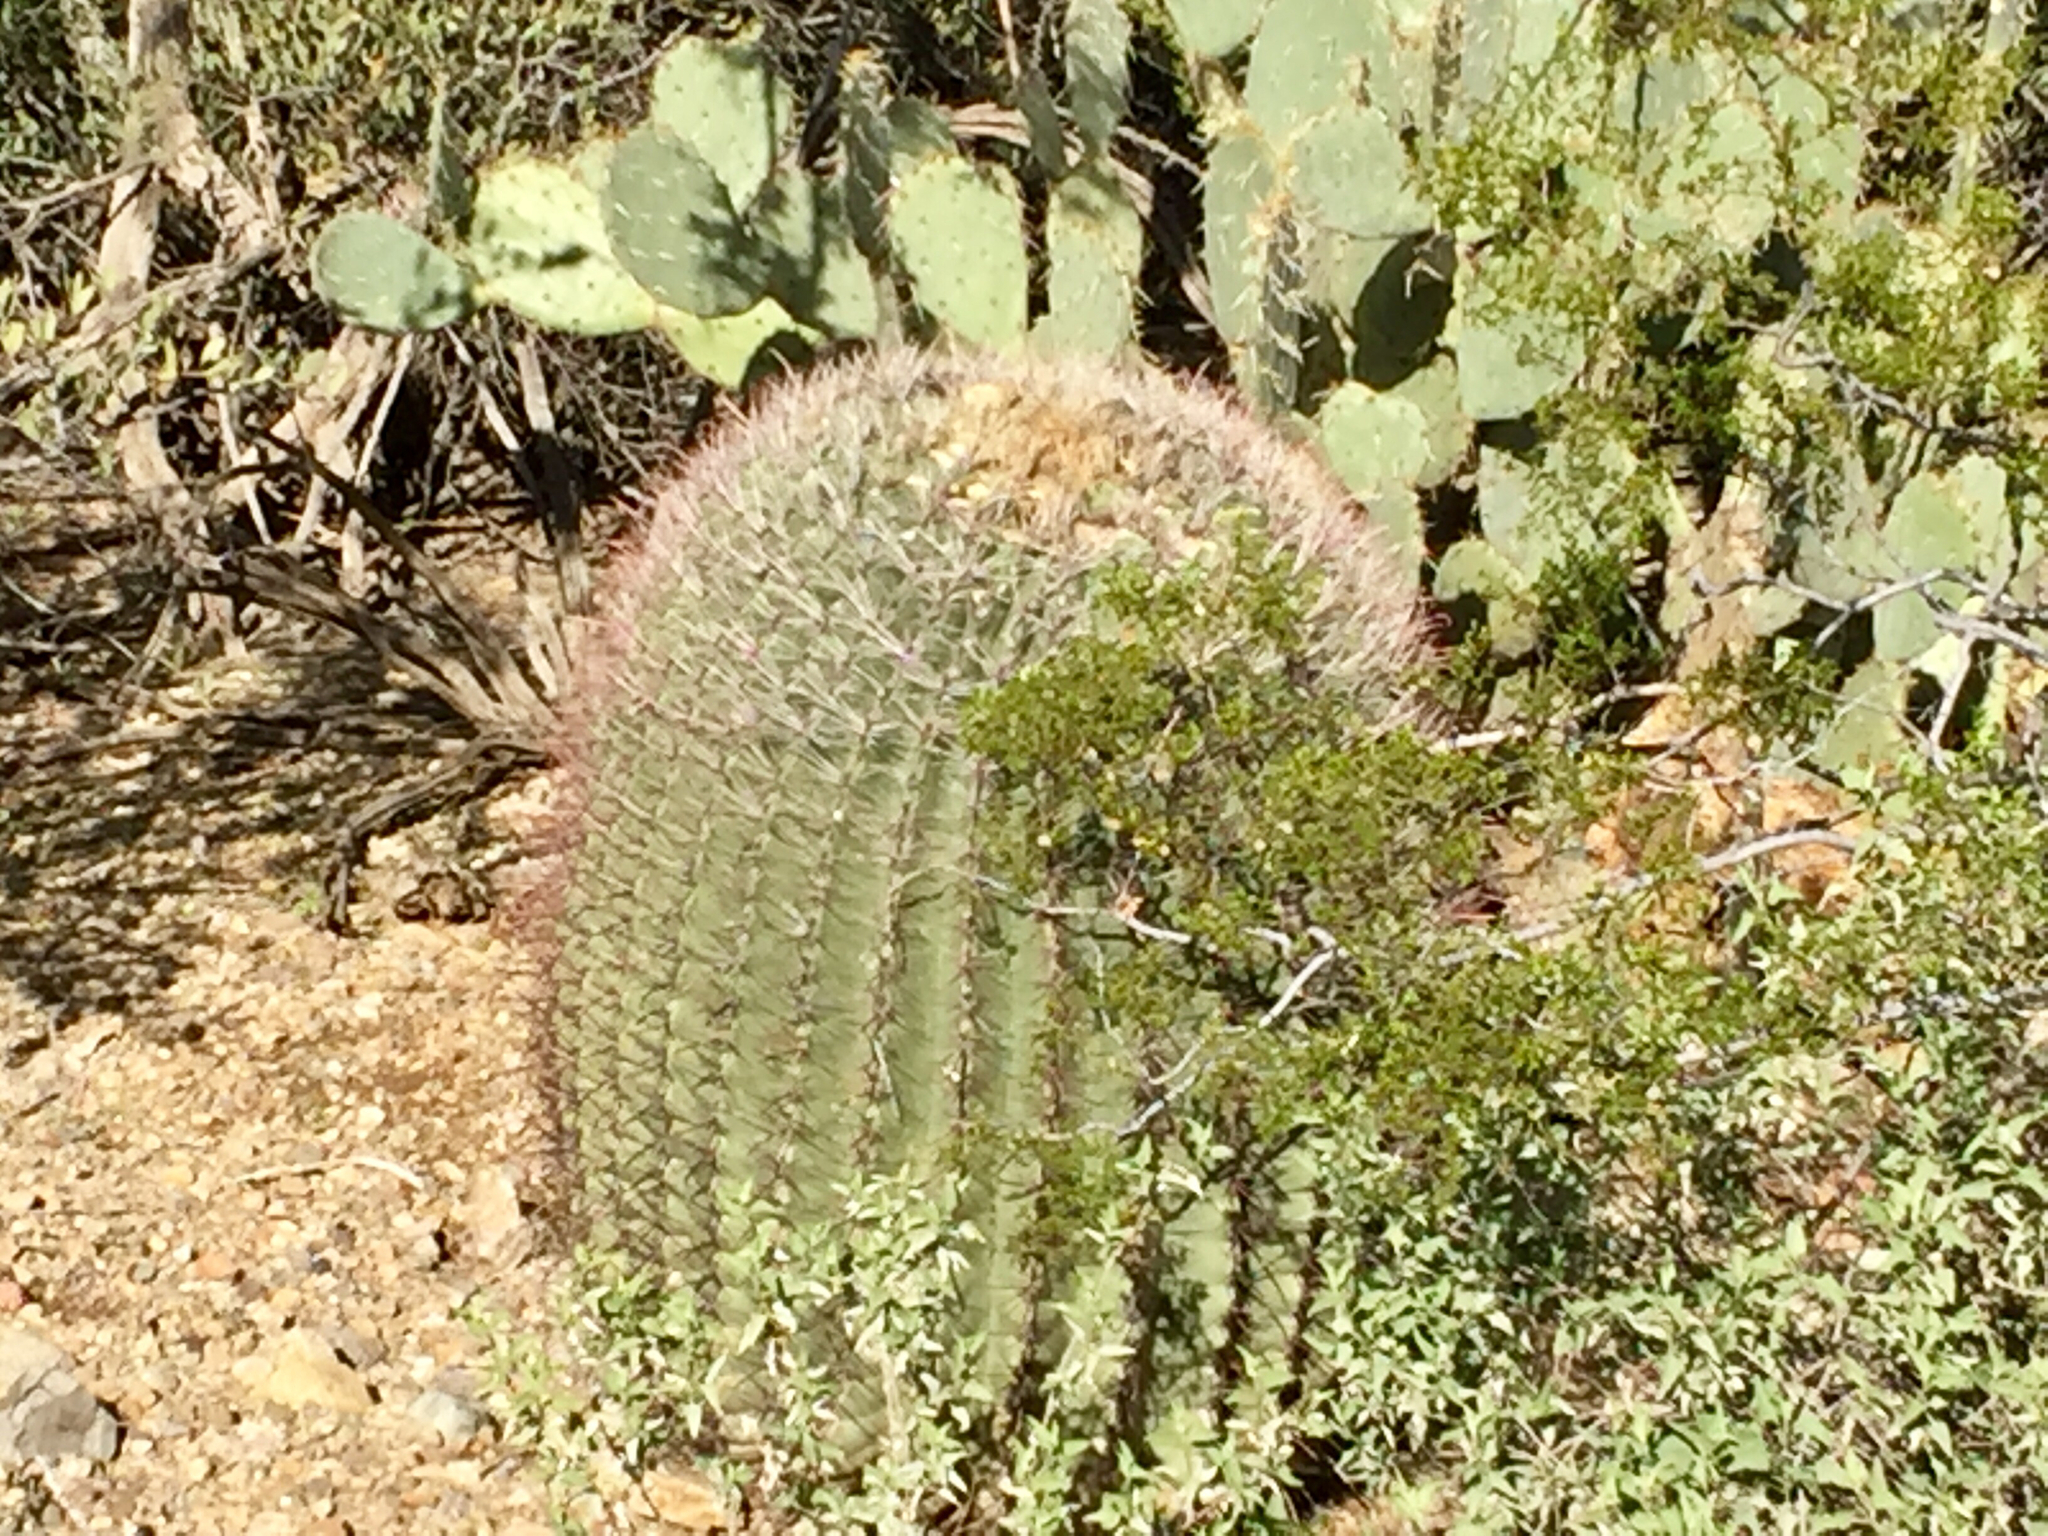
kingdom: Plantae
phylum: Tracheophyta
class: Magnoliopsida
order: Caryophyllales
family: Cactaceae
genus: Ferocactus
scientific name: Ferocactus wislizeni
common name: Candy barrel cactus
